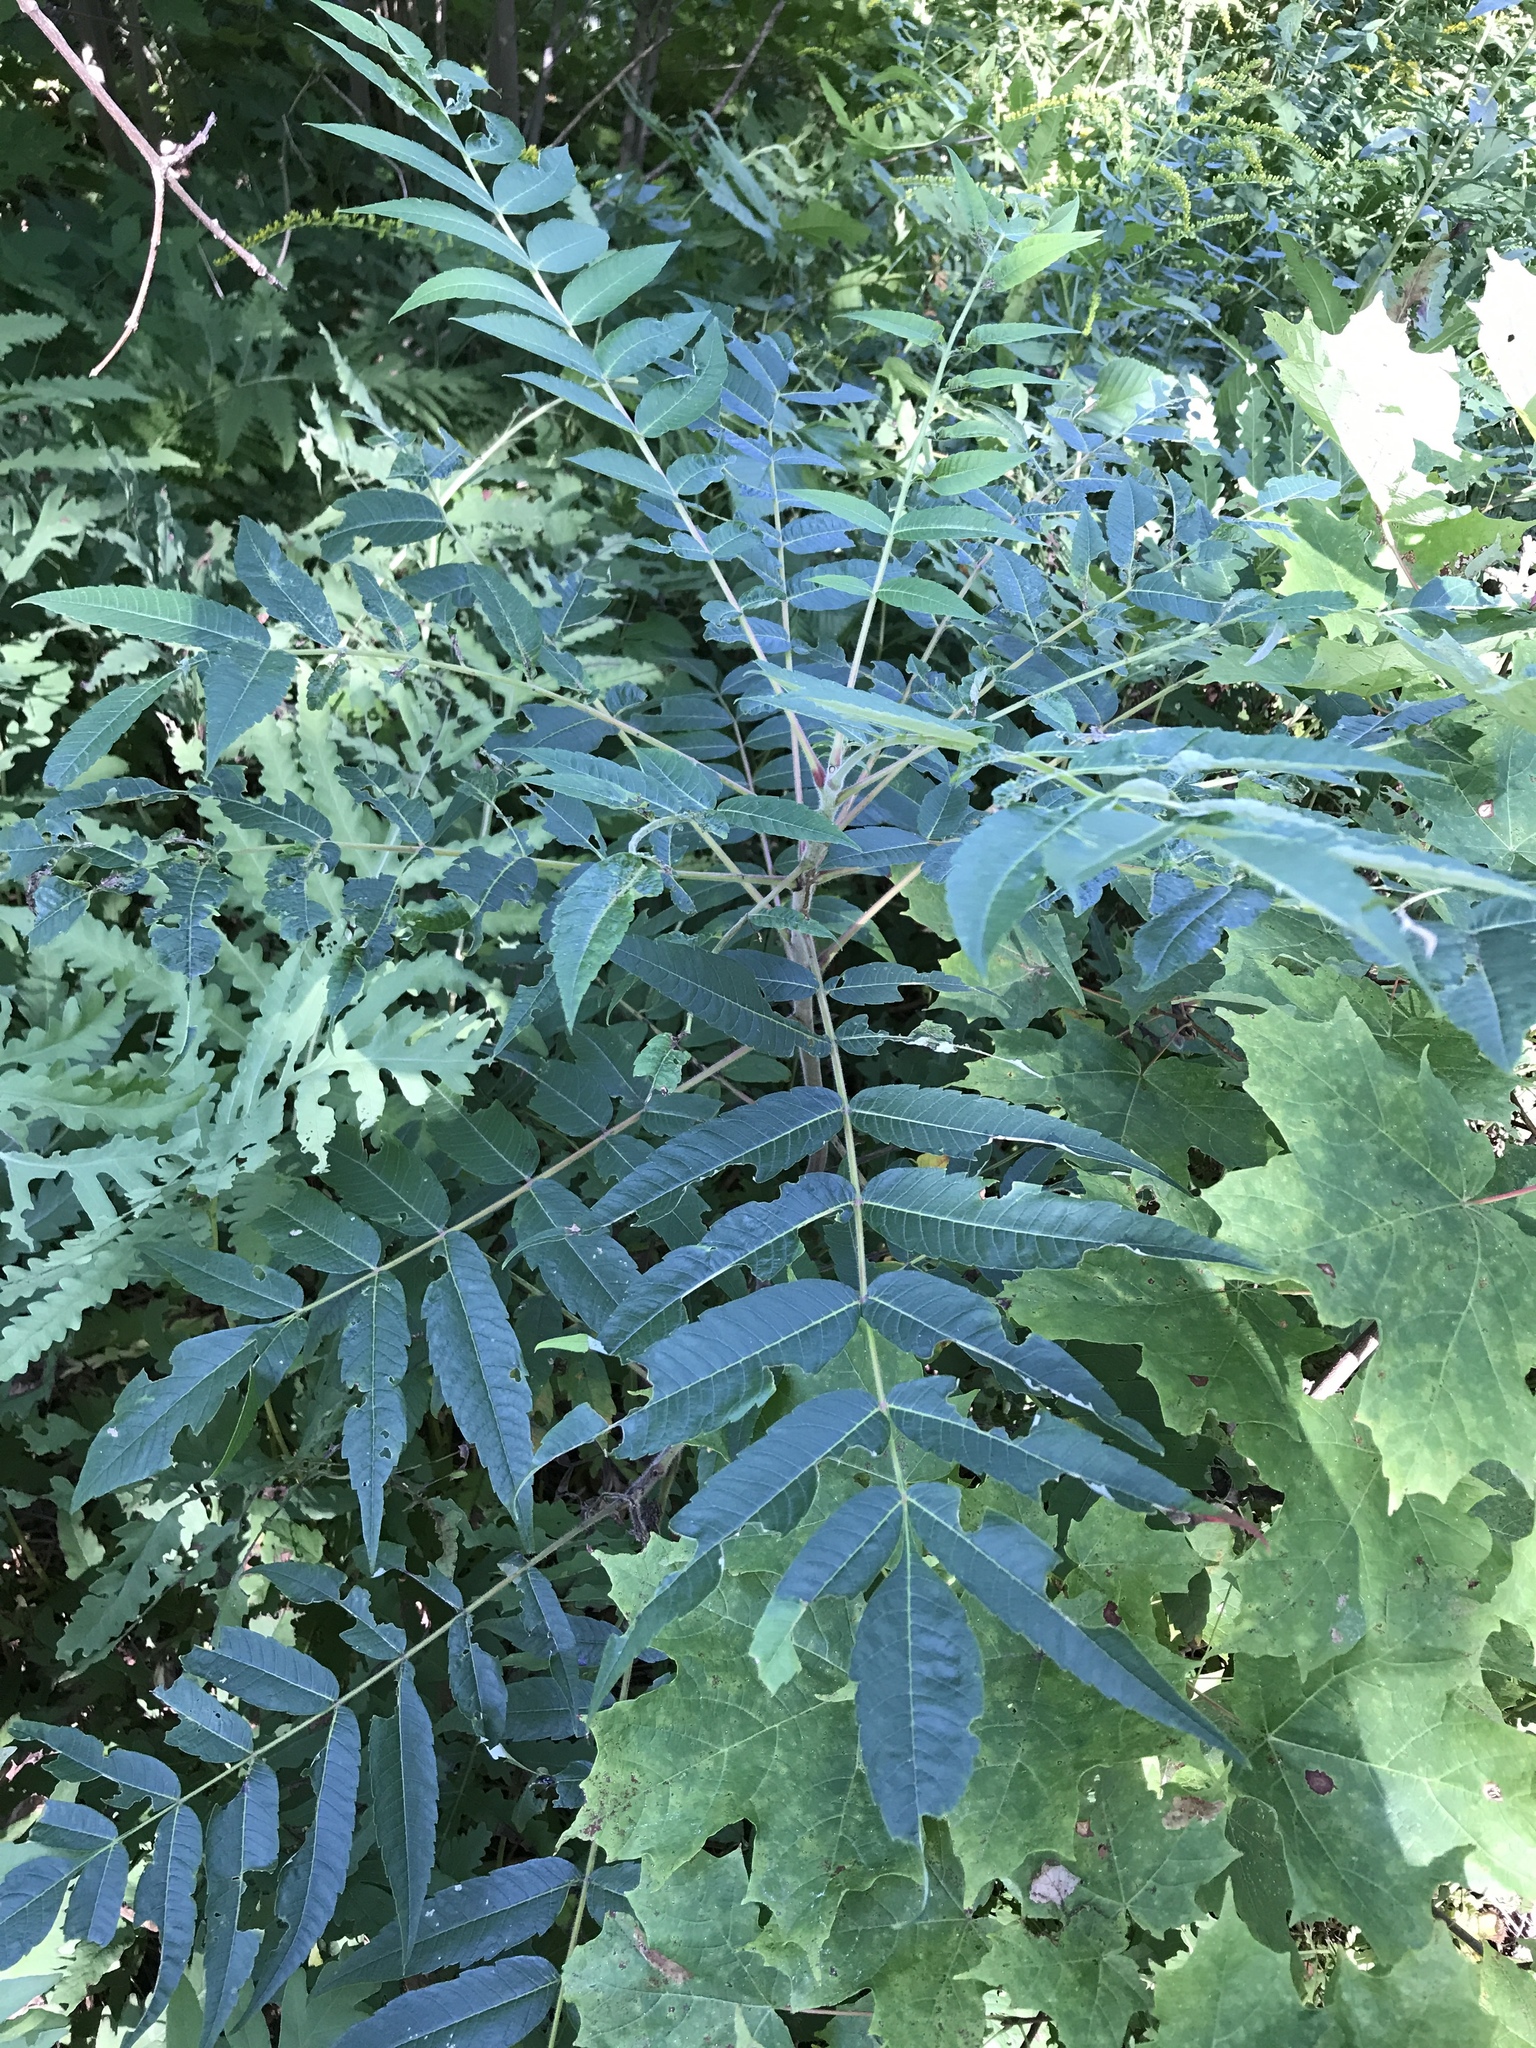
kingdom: Plantae
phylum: Tracheophyta
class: Magnoliopsida
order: Sapindales
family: Anacardiaceae
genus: Rhus
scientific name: Rhus typhina
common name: Staghorn sumac
